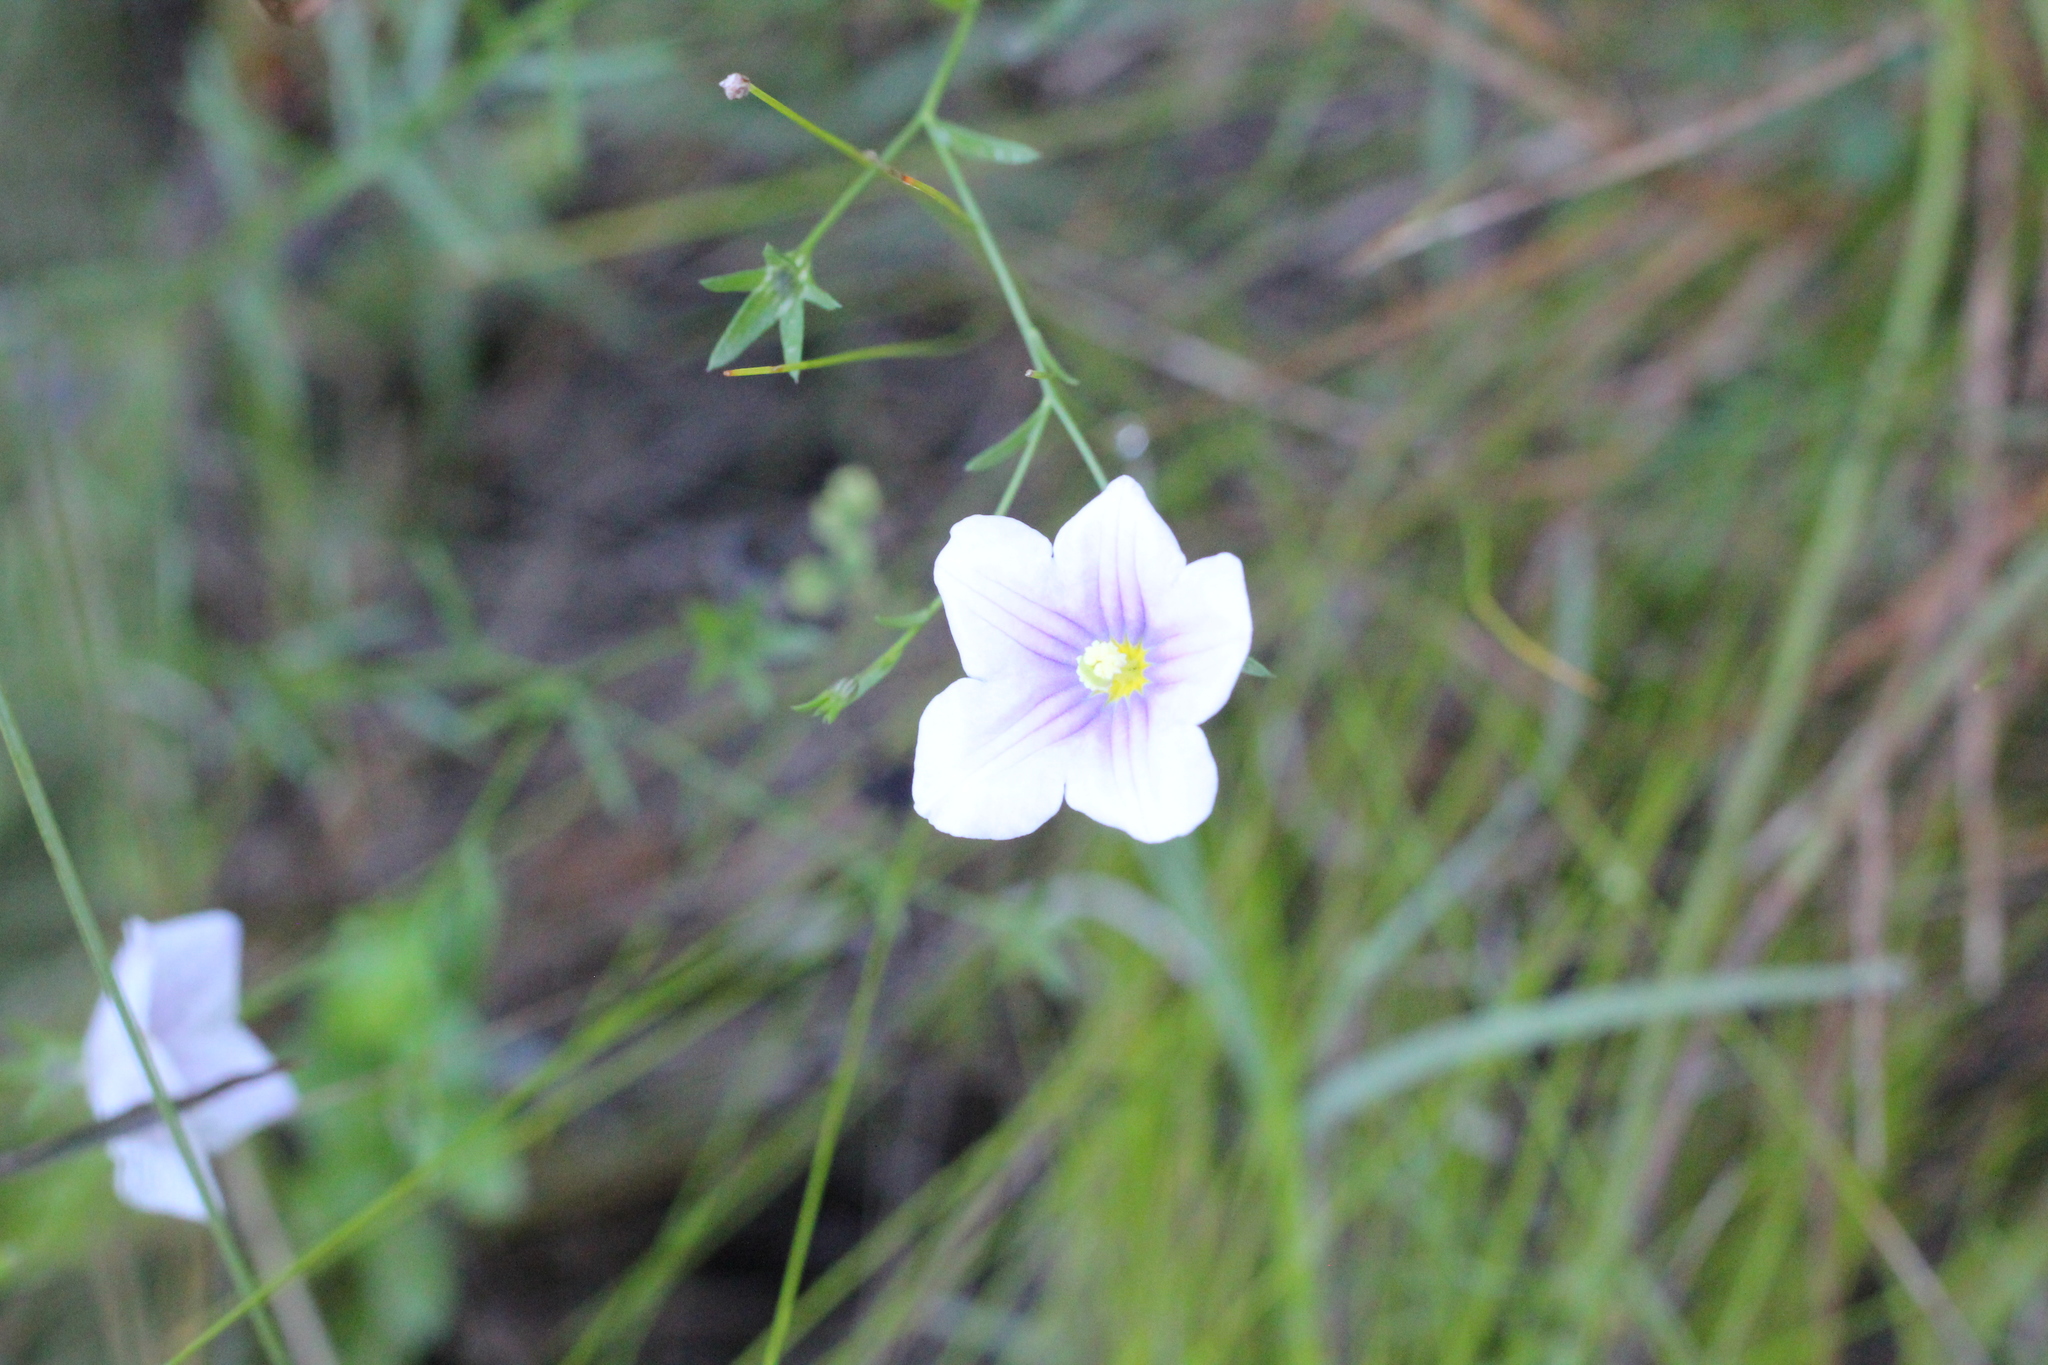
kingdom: Plantae
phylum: Tracheophyta
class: Magnoliopsida
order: Solanales
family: Solanaceae
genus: Nierembergia
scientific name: Nierembergia linariifolia
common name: Dwarf cupflower
